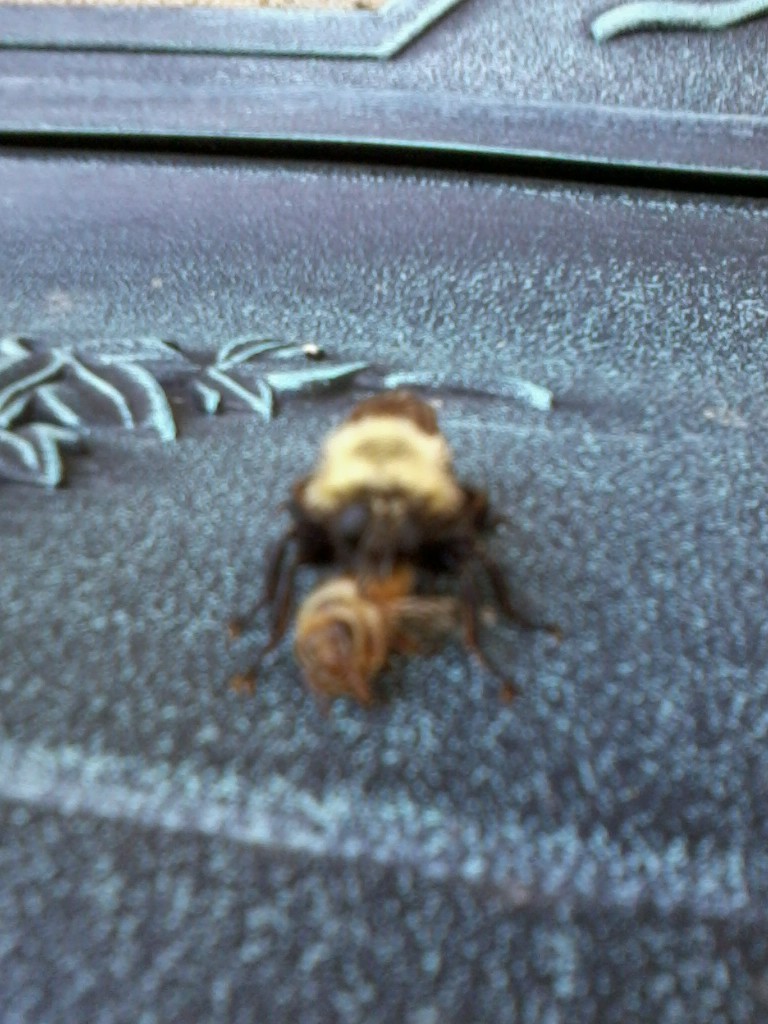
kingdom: Animalia
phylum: Arthropoda
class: Insecta
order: Diptera
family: Asilidae
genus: Laphria
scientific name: Laphria thoracica
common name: Bumble bee mimic robber fly
